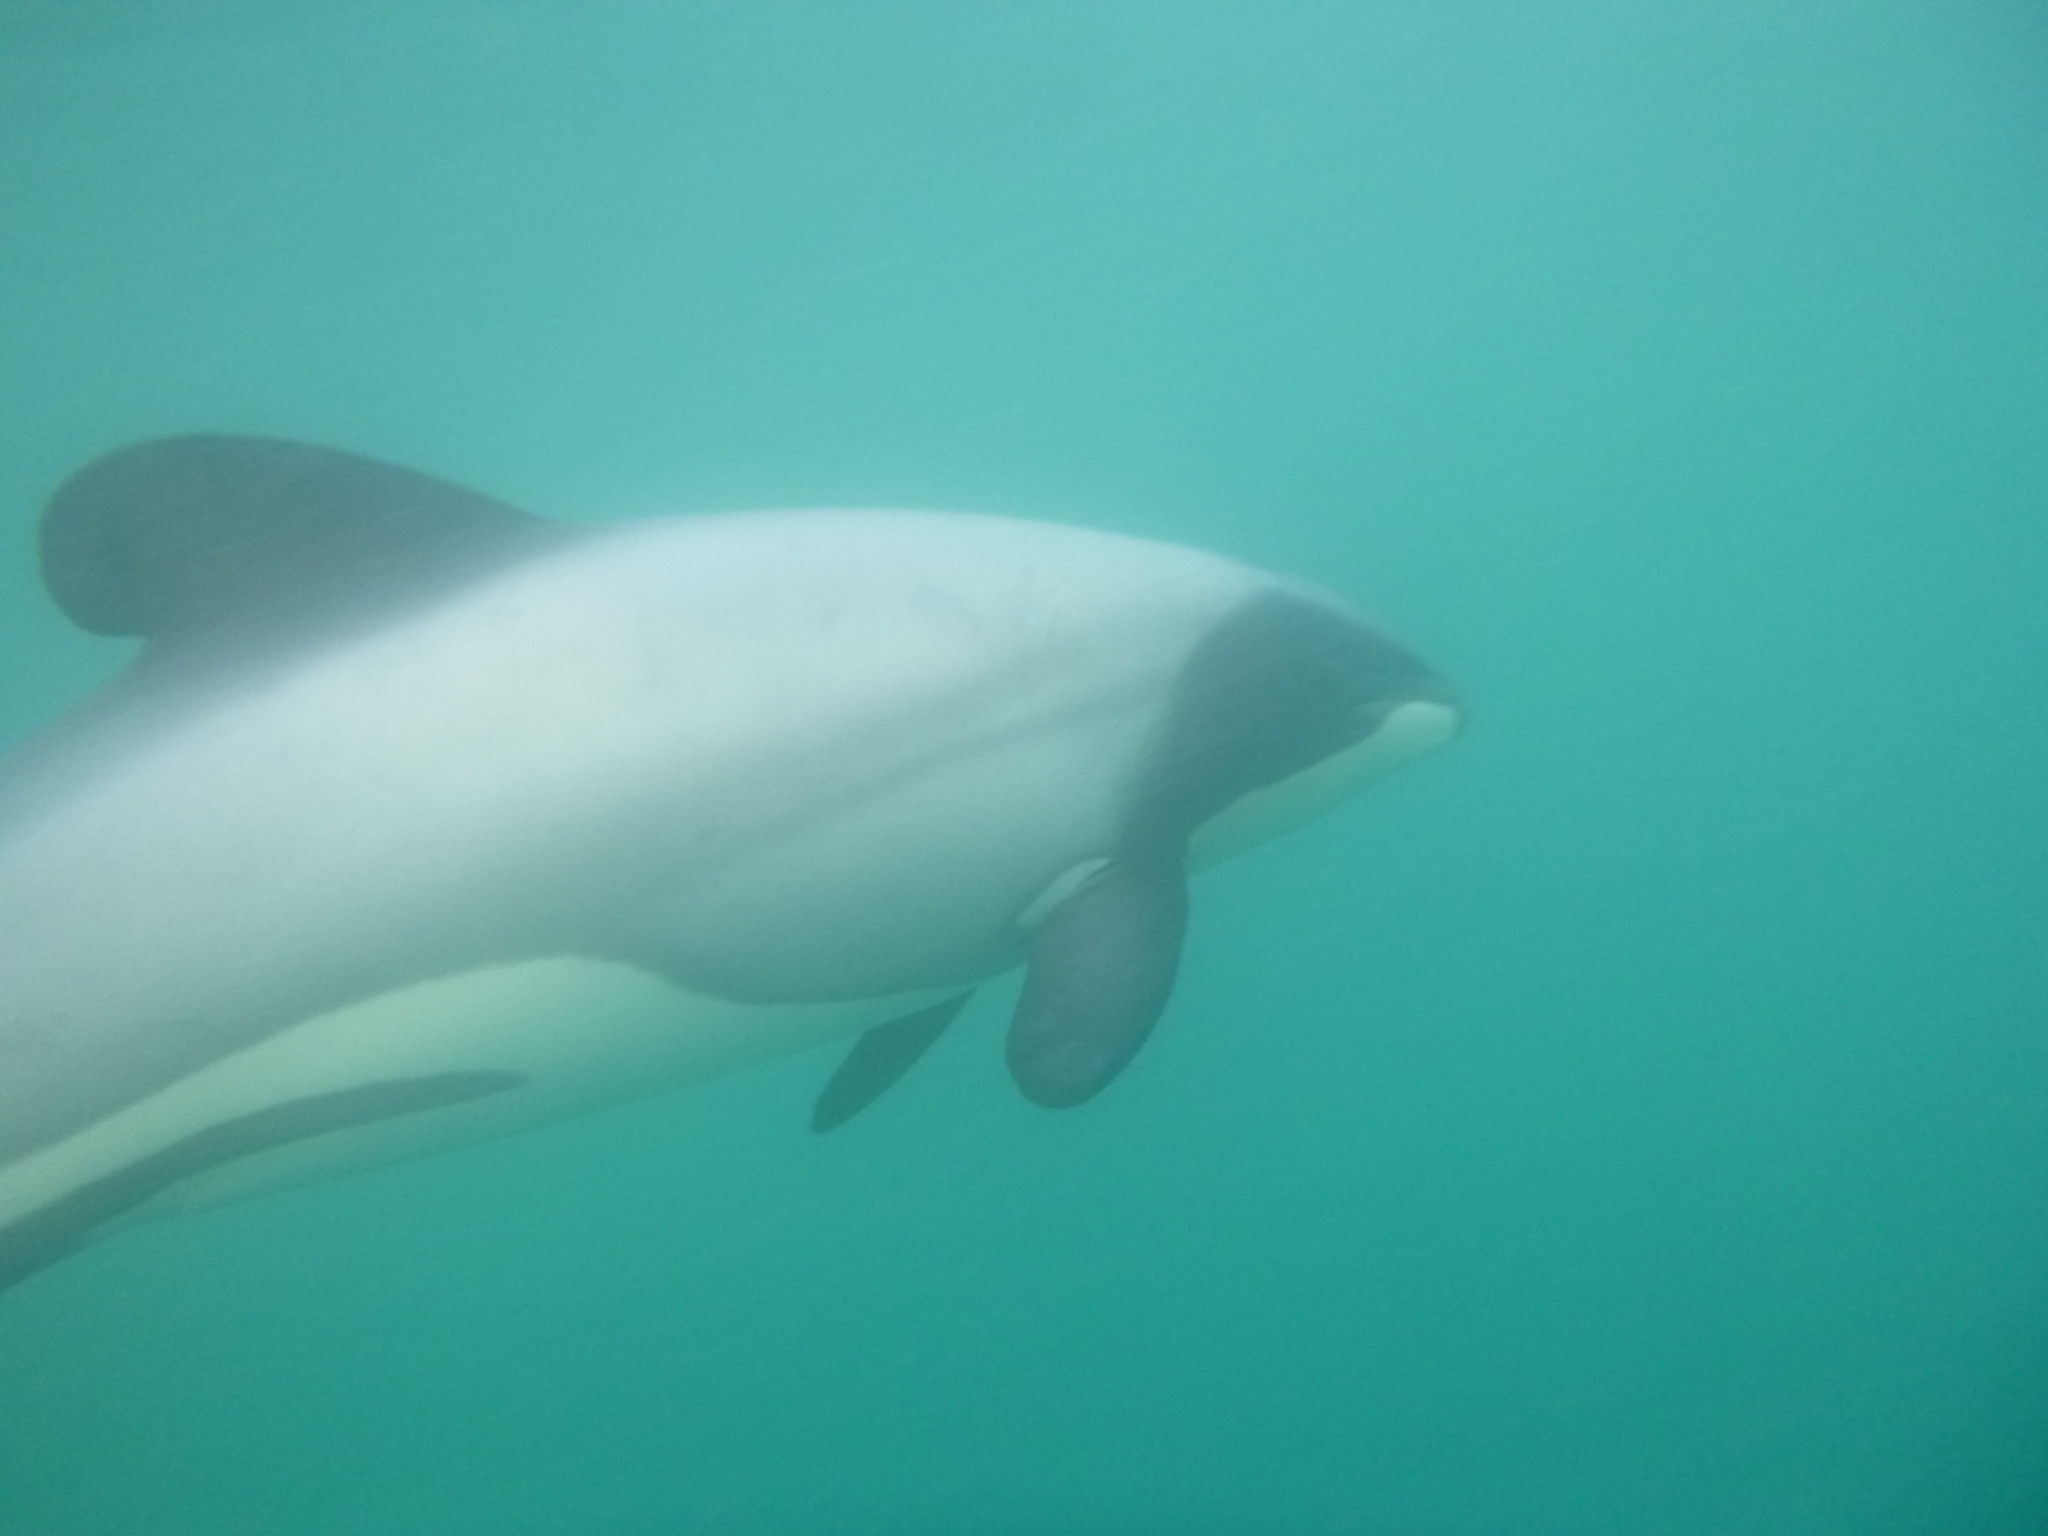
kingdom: Animalia
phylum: Chordata
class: Mammalia
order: Cetacea
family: Delphinidae
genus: Cephalorhynchus
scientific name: Cephalorhynchus hectori
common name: Hector's dolphin
